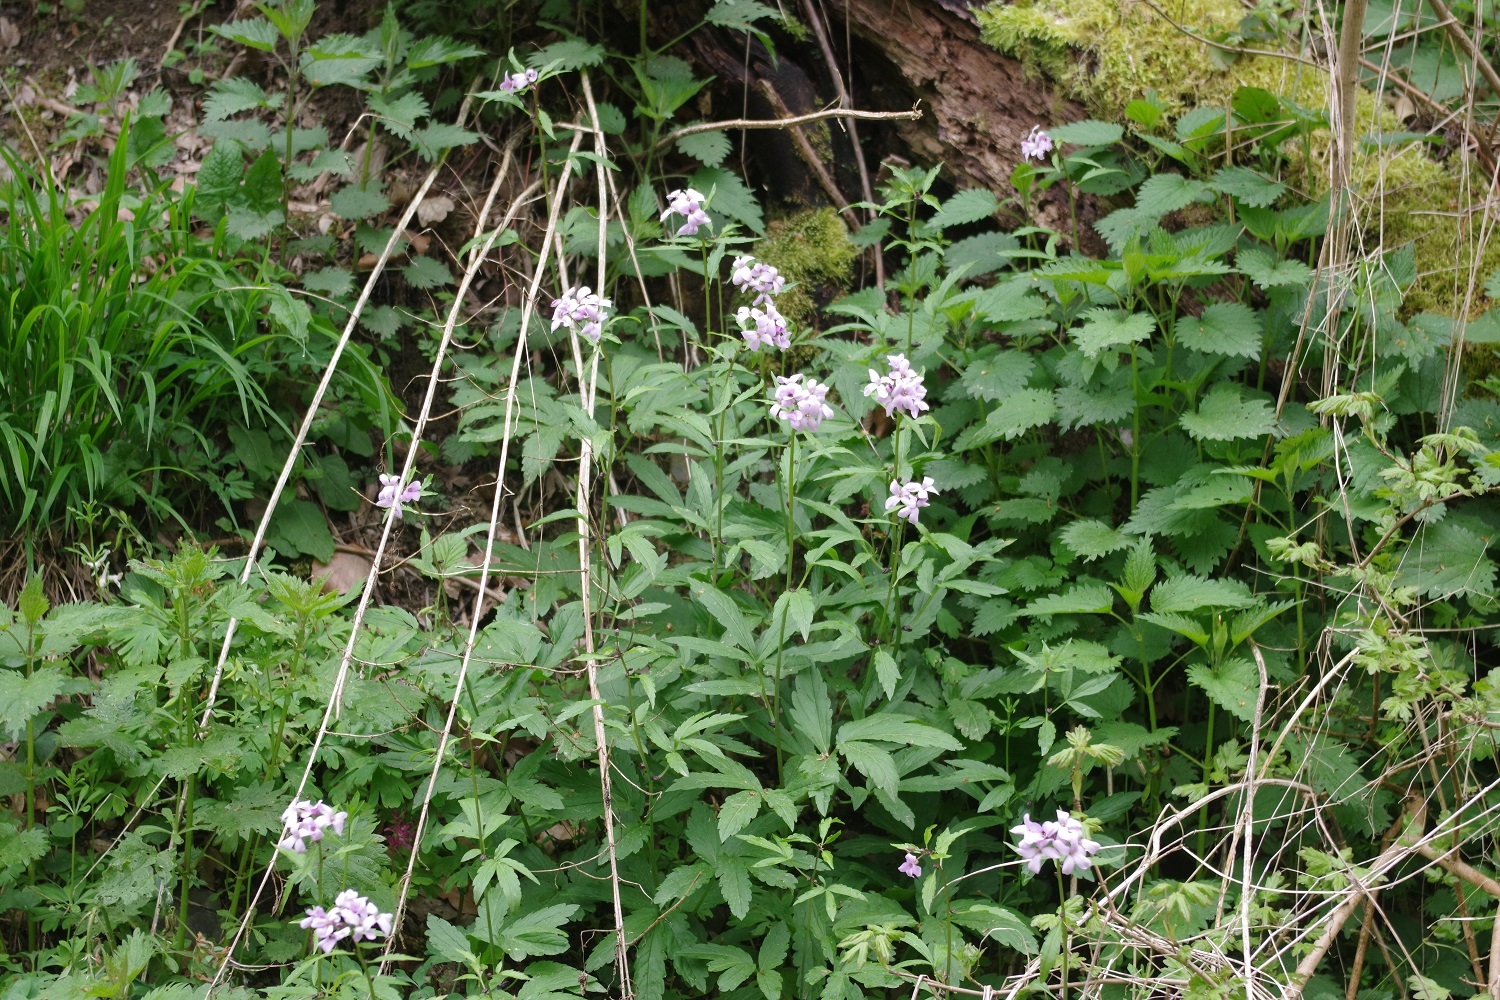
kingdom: Plantae
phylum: Tracheophyta
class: Magnoliopsida
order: Brassicales
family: Brassicaceae
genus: Cardamine
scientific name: Cardamine bulbifera
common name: Coralroot bittercress
